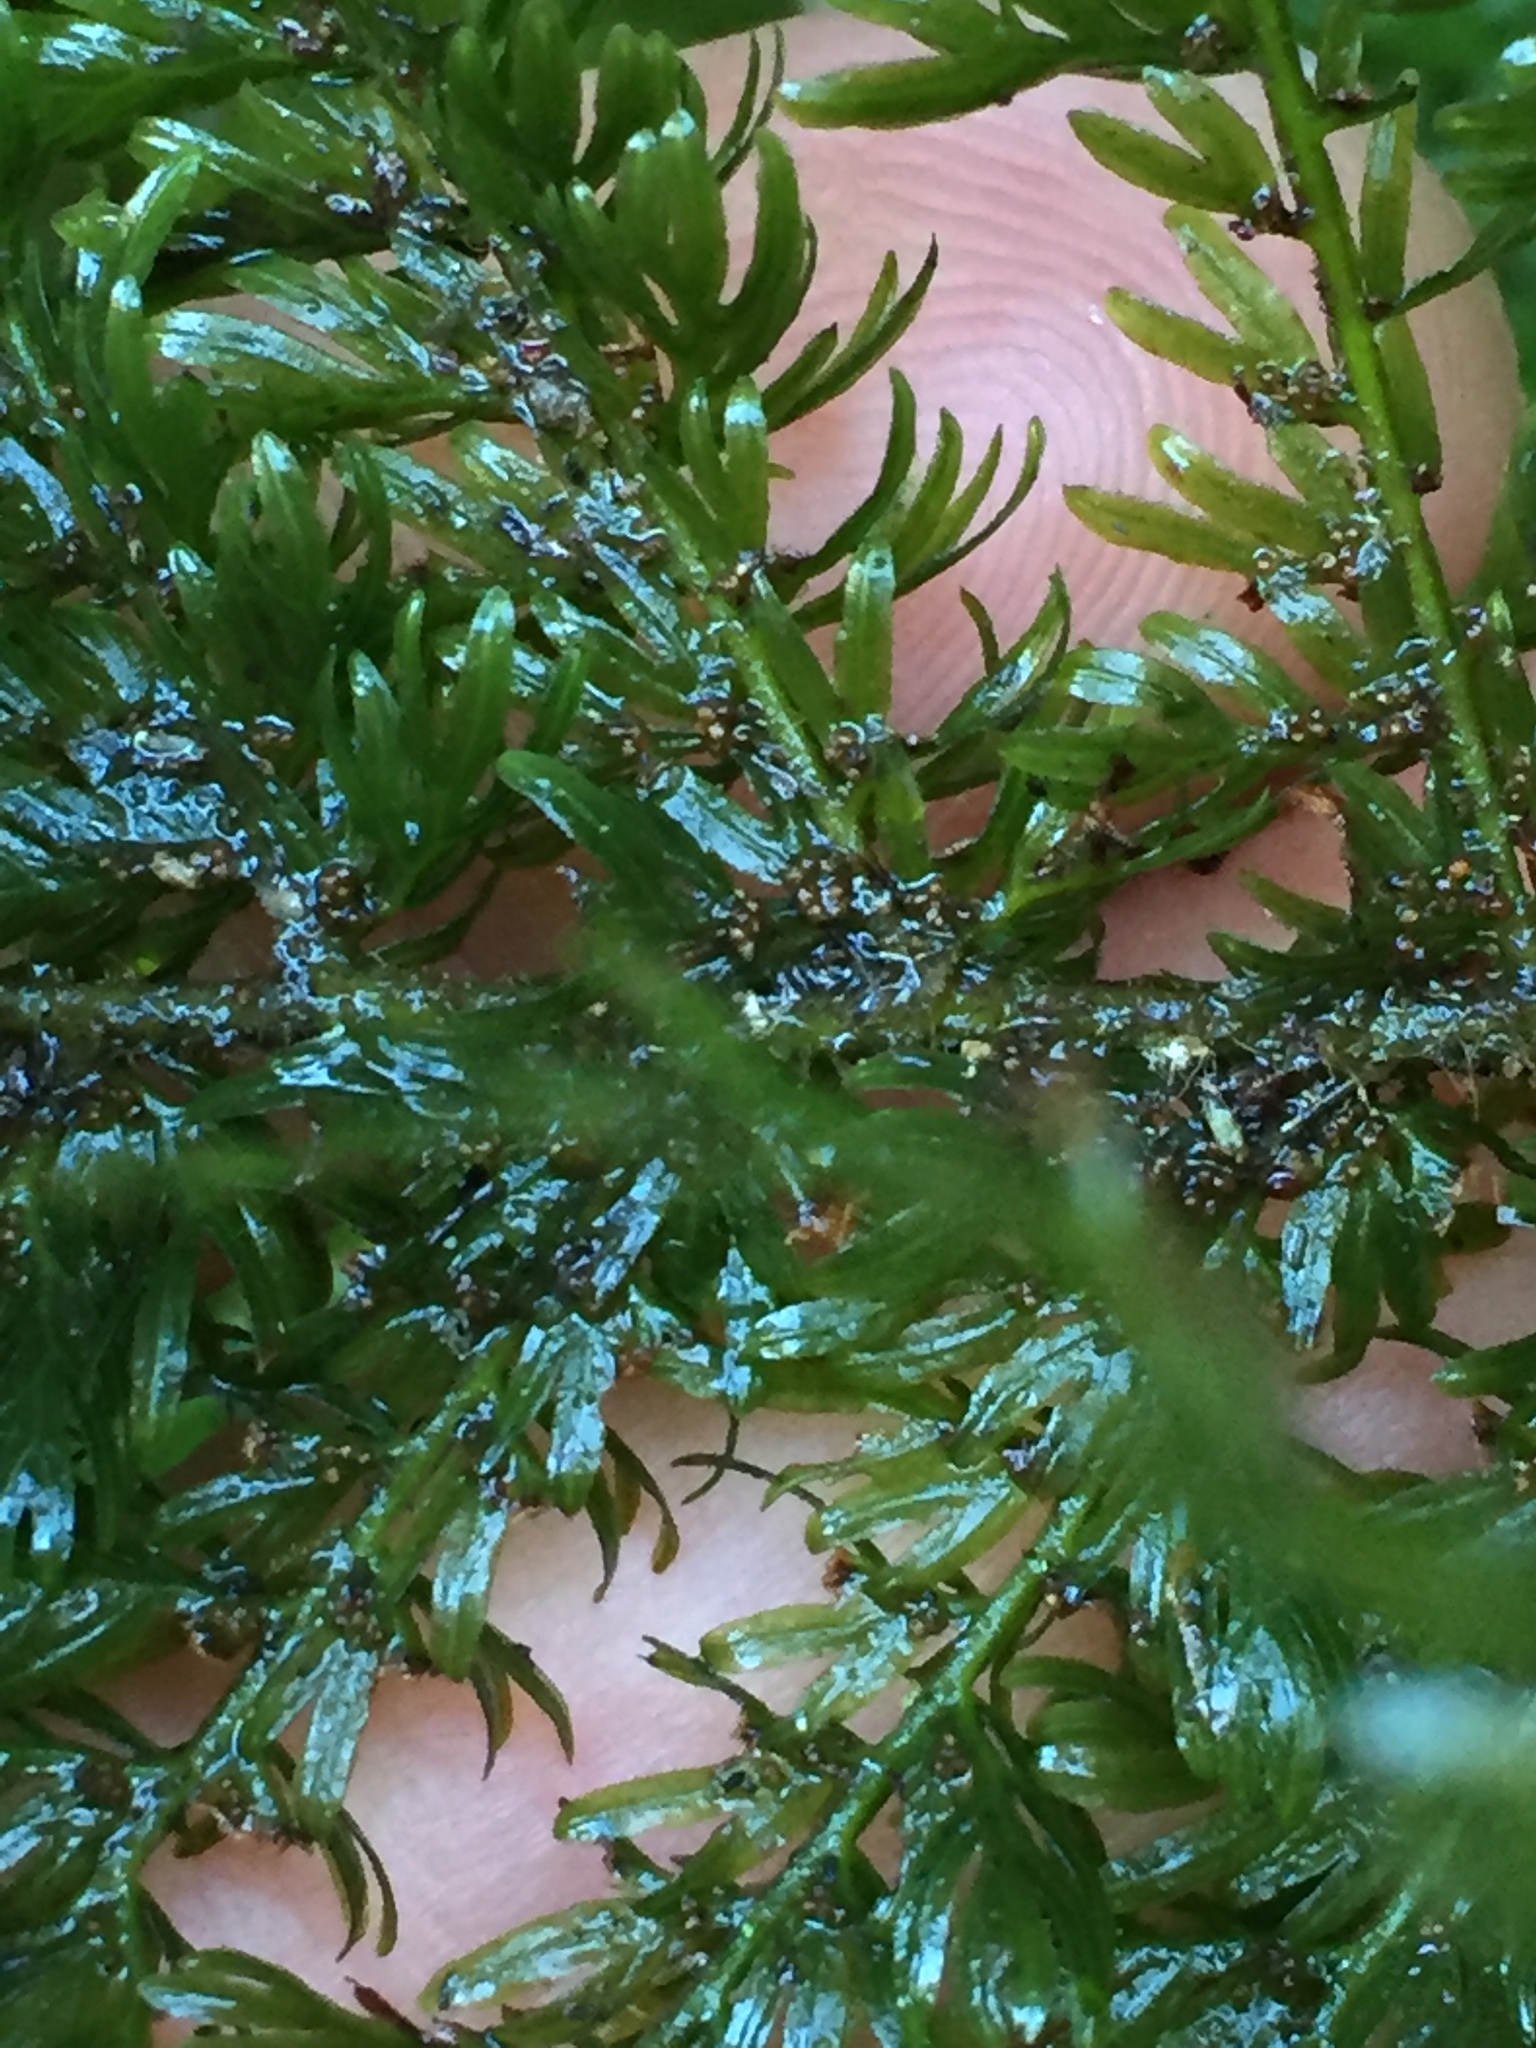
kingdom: Plantae
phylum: Tracheophyta
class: Polypodiopsida
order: Osmundales
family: Osmundaceae
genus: Leptopteris
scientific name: Leptopteris superba
